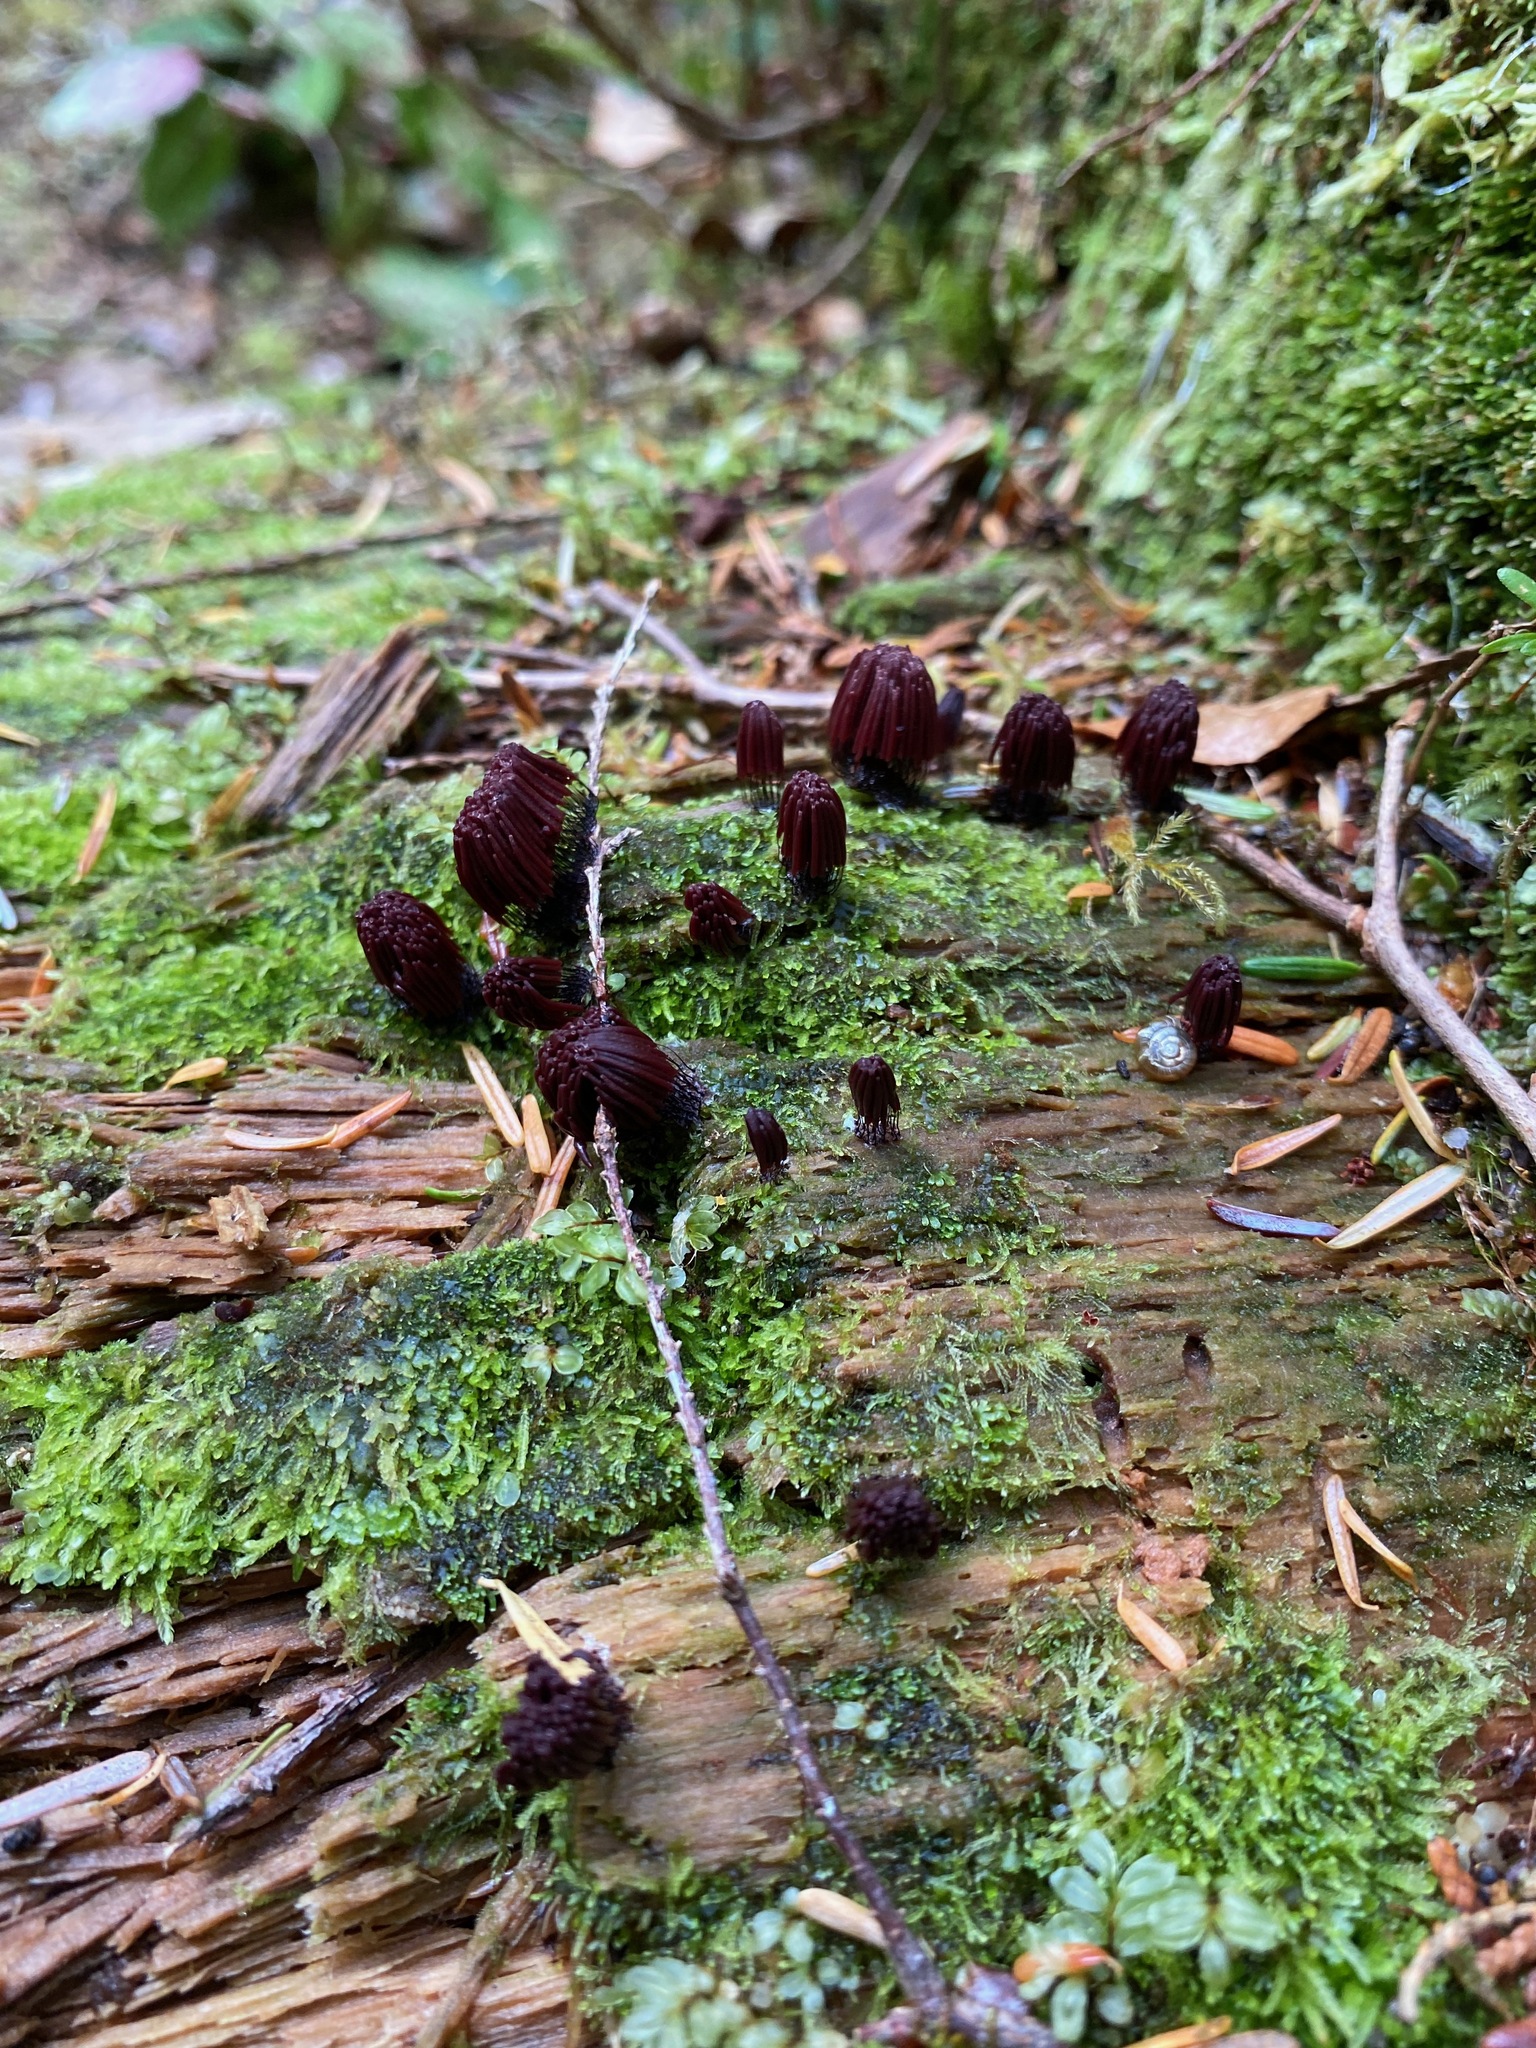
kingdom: Protozoa
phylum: Mycetozoa
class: Myxomycetes
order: Stemonitidales
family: Stemonitidaceae
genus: Stemonitis
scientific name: Stemonitis splendens
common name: Chocolate tube slime
